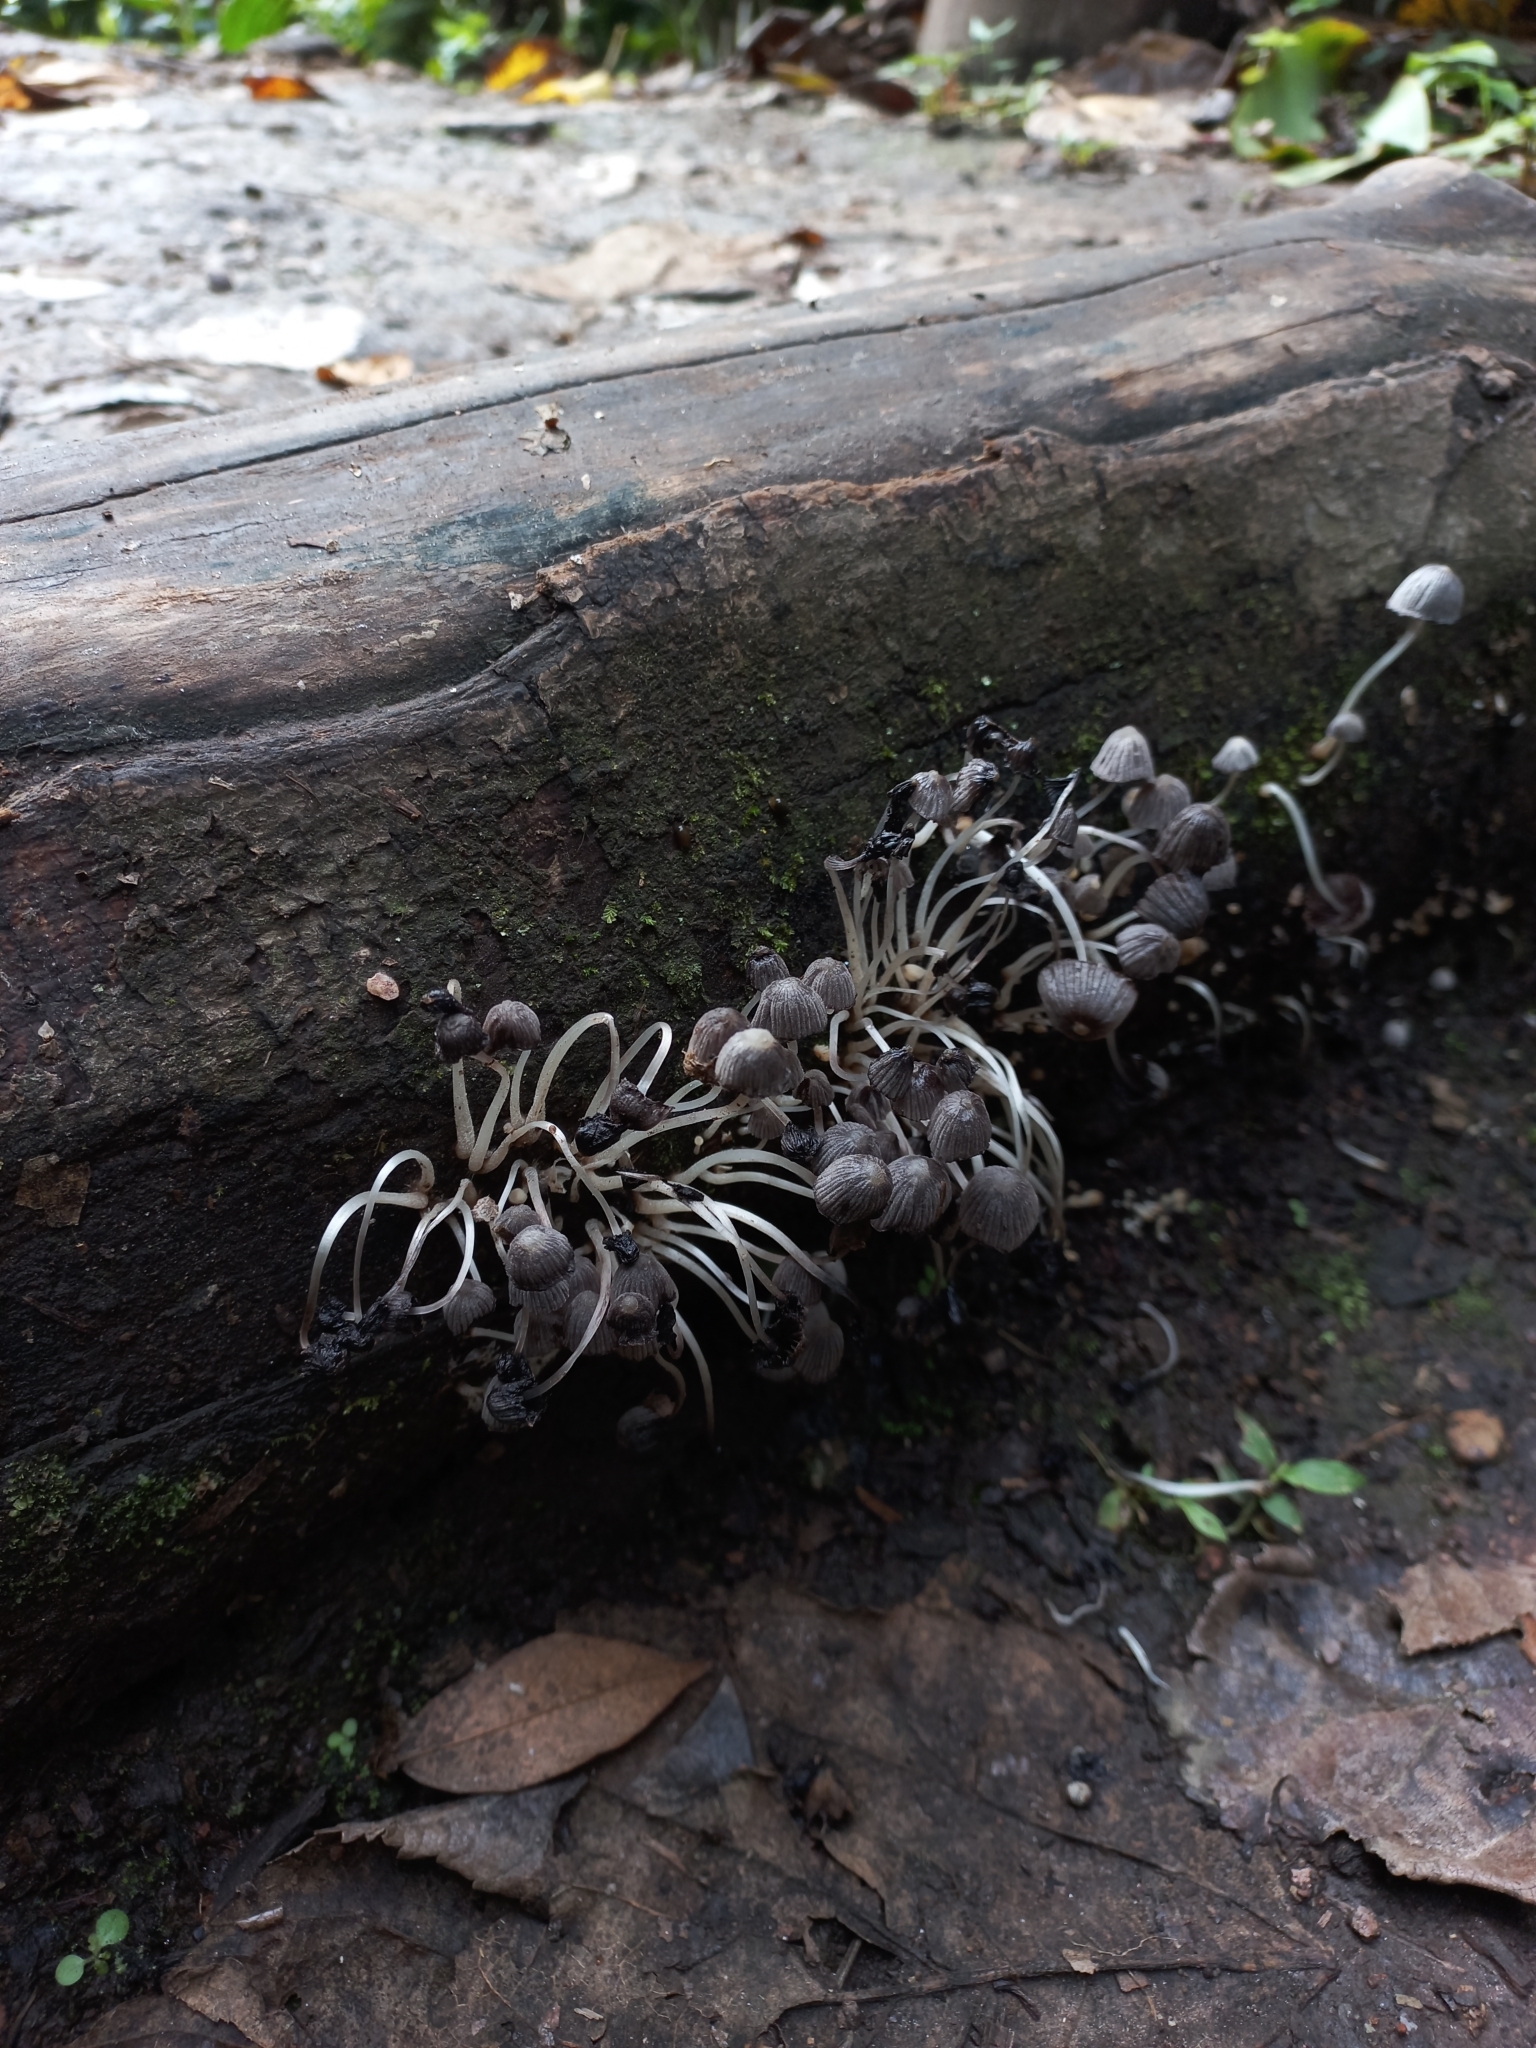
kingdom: Fungi
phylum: Basidiomycota
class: Agaricomycetes
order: Agaricales
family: Psathyrellaceae
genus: Coprinellus
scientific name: Coprinellus disseminatus
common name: Fairies' bonnets
